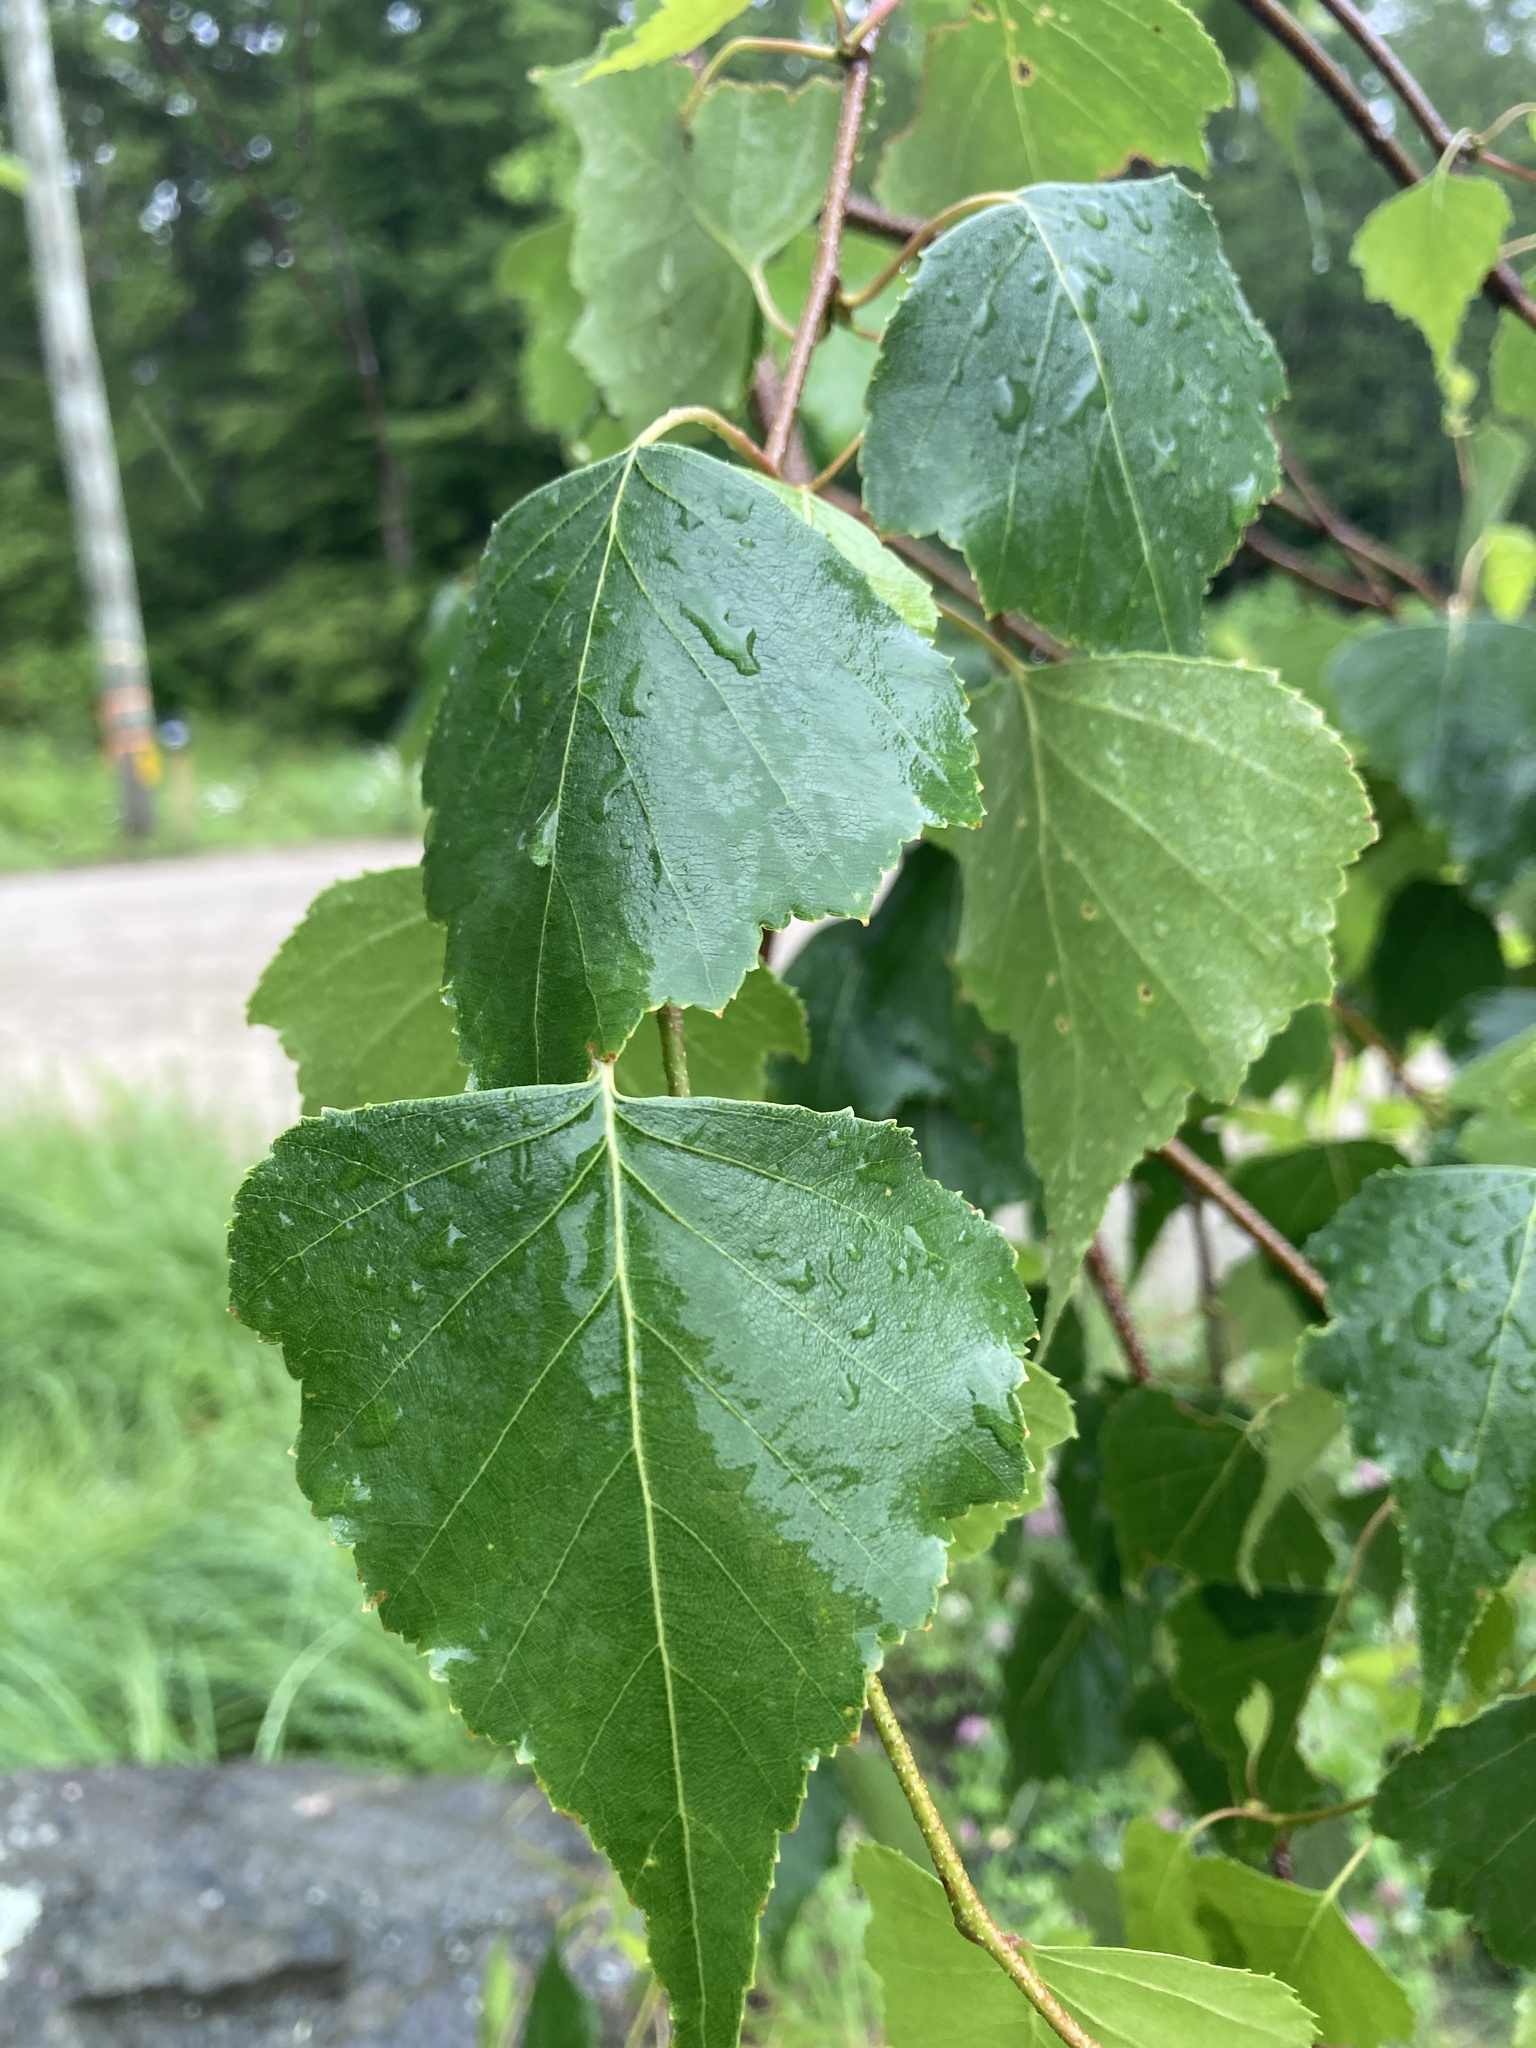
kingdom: Plantae
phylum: Tracheophyta
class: Magnoliopsida
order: Fagales
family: Betulaceae
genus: Betula
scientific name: Betula populifolia
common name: Fire birch
